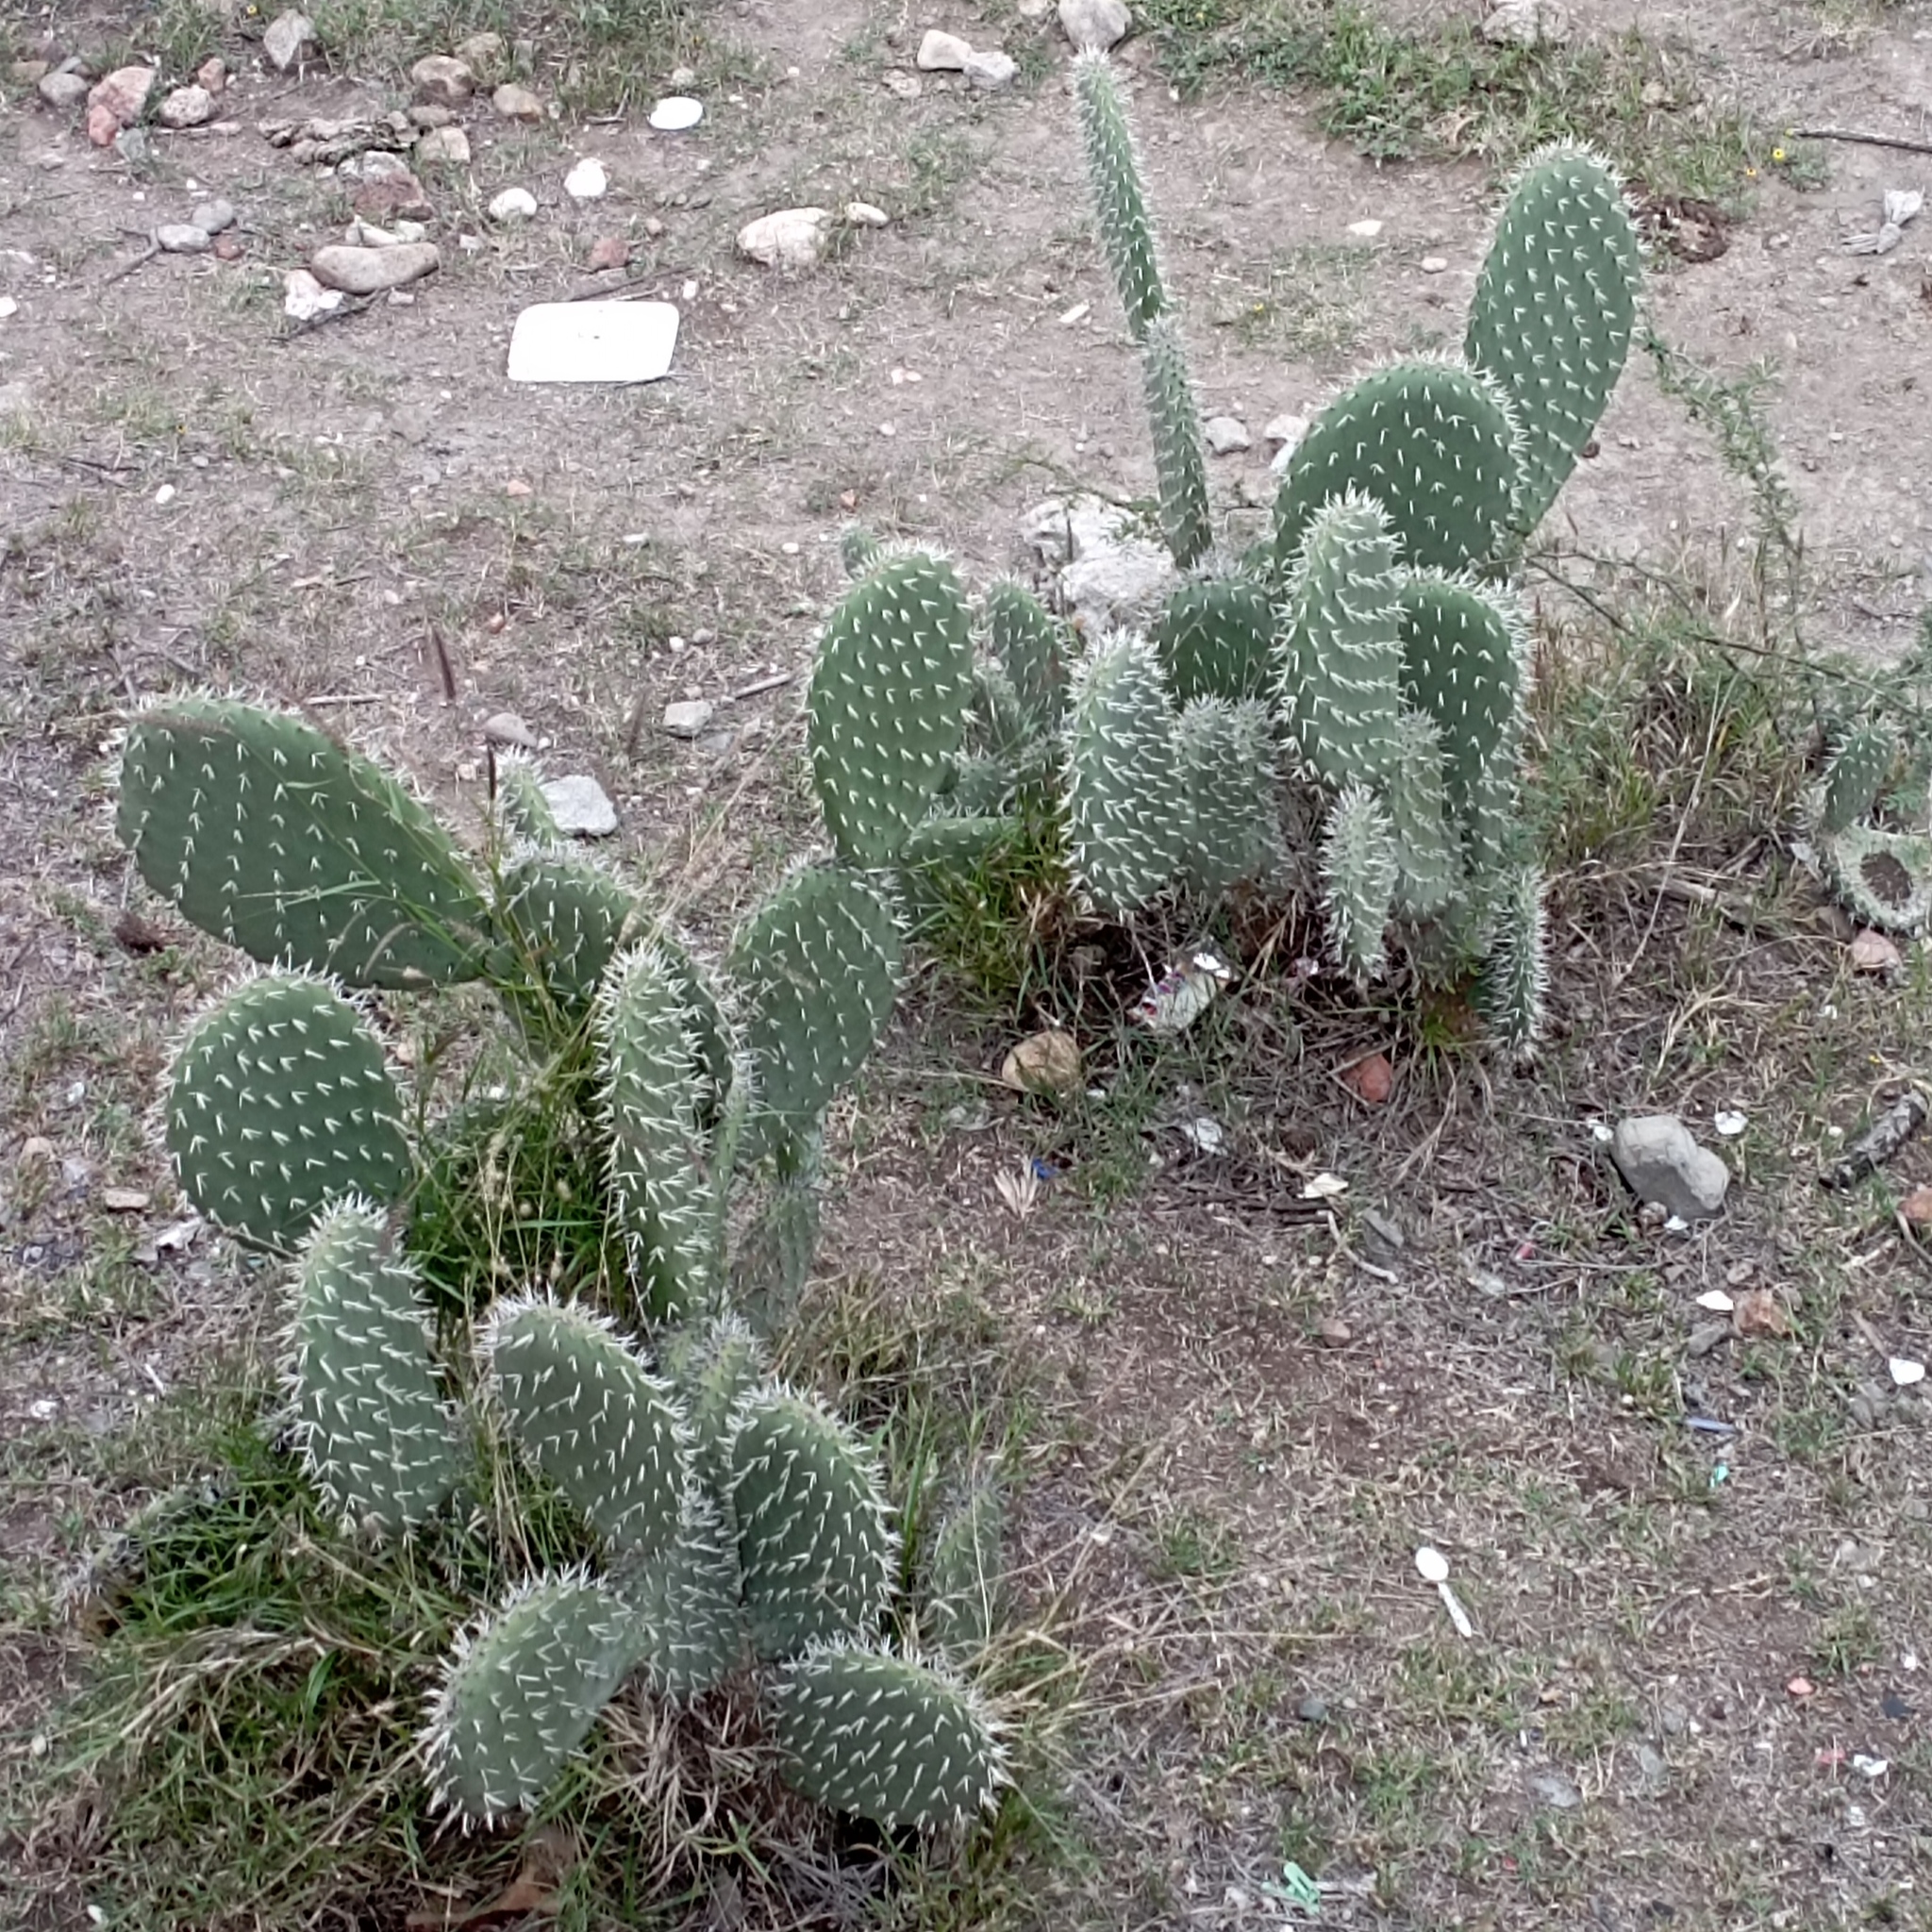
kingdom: Plantae
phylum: Tracheophyta
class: Magnoliopsida
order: Caryophyllales
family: Cactaceae
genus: Opuntia
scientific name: Opuntia ficus-indica
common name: Barbary fig
